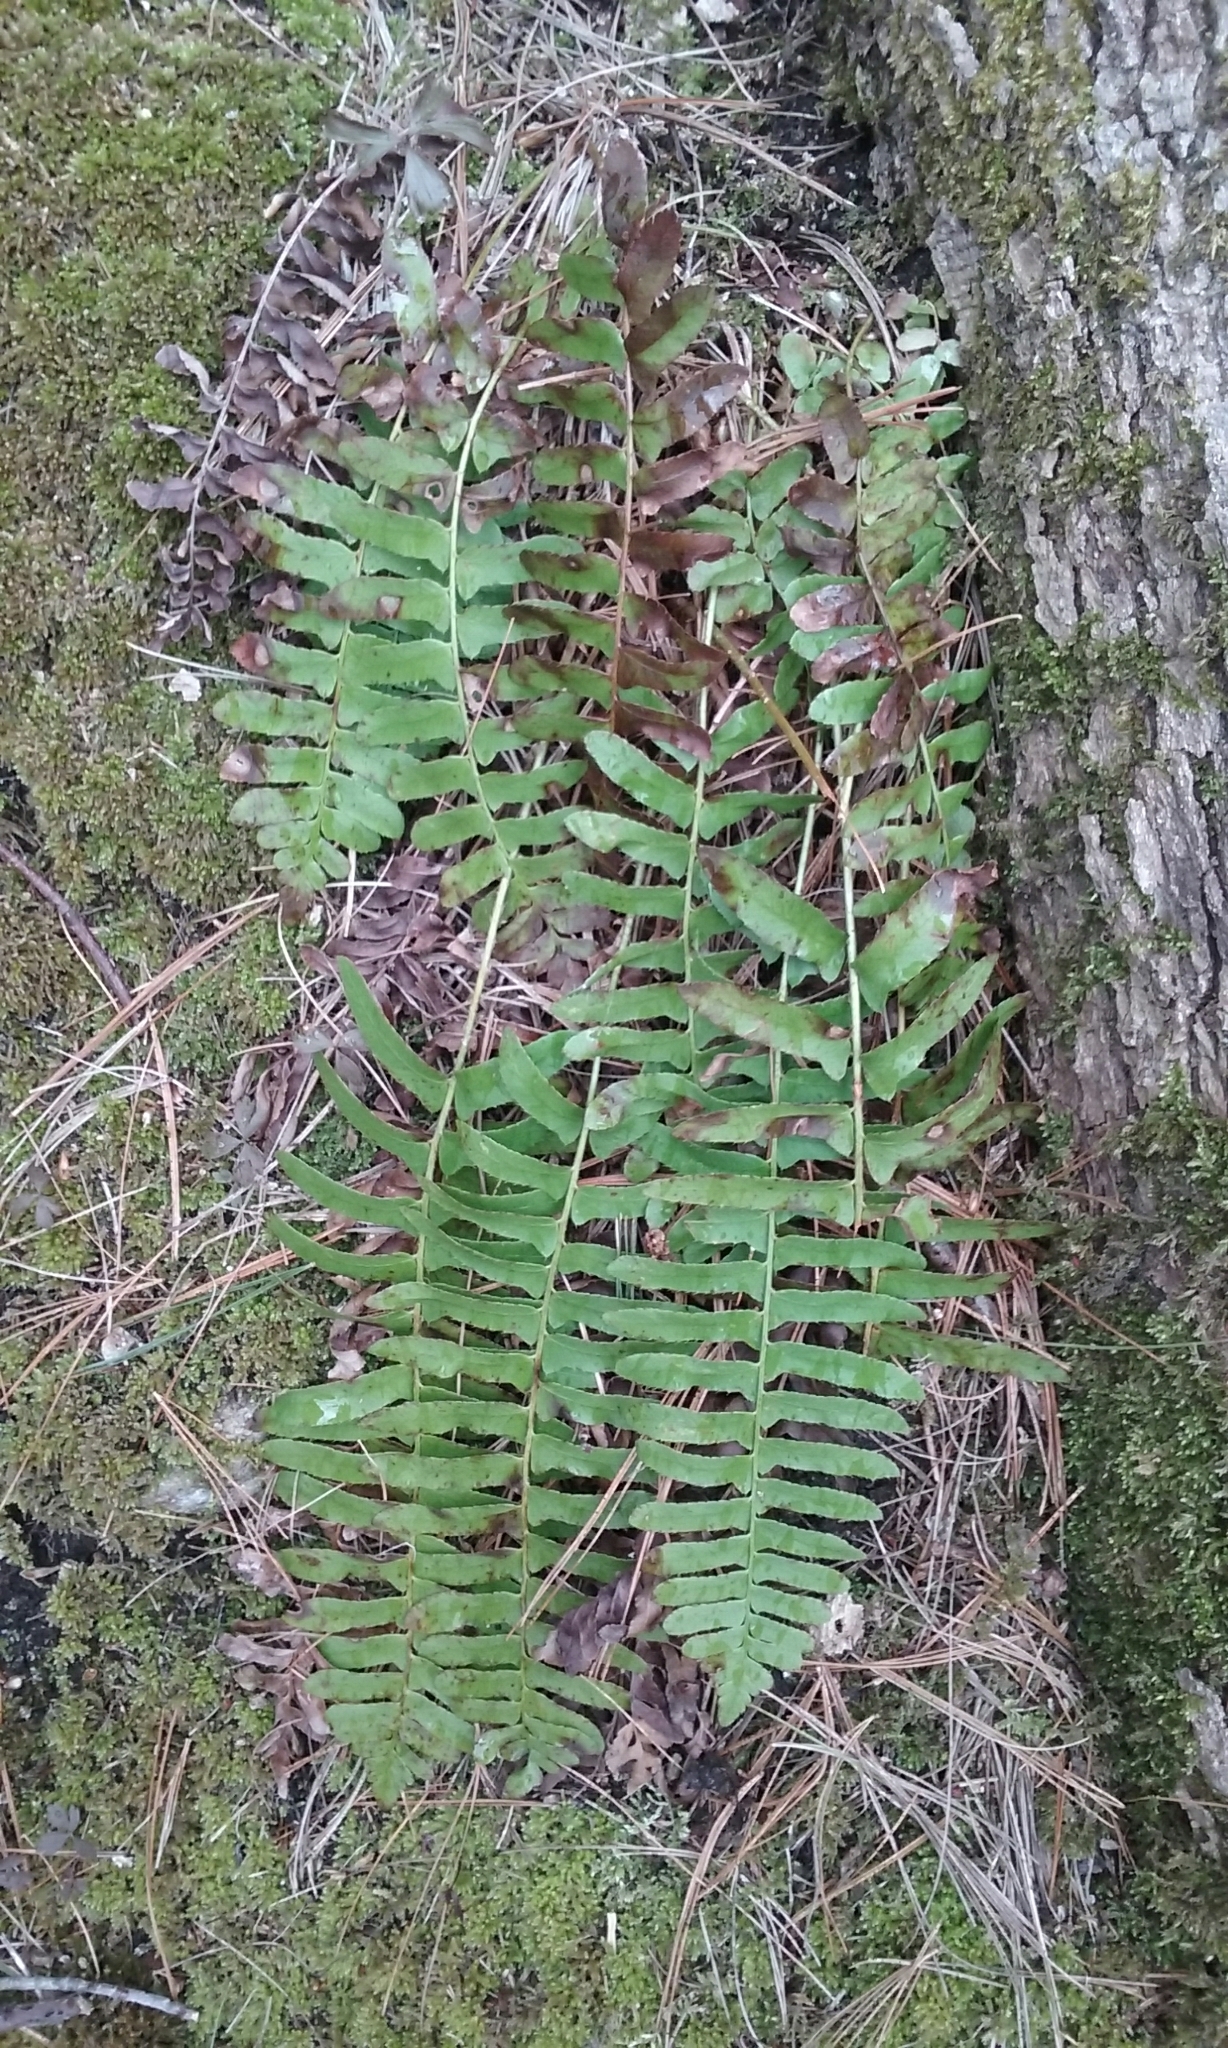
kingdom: Plantae
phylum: Tracheophyta
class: Polypodiopsida
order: Polypodiales
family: Dryopteridaceae
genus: Polystichum
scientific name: Polystichum acrostichoides
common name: Christmas fern
